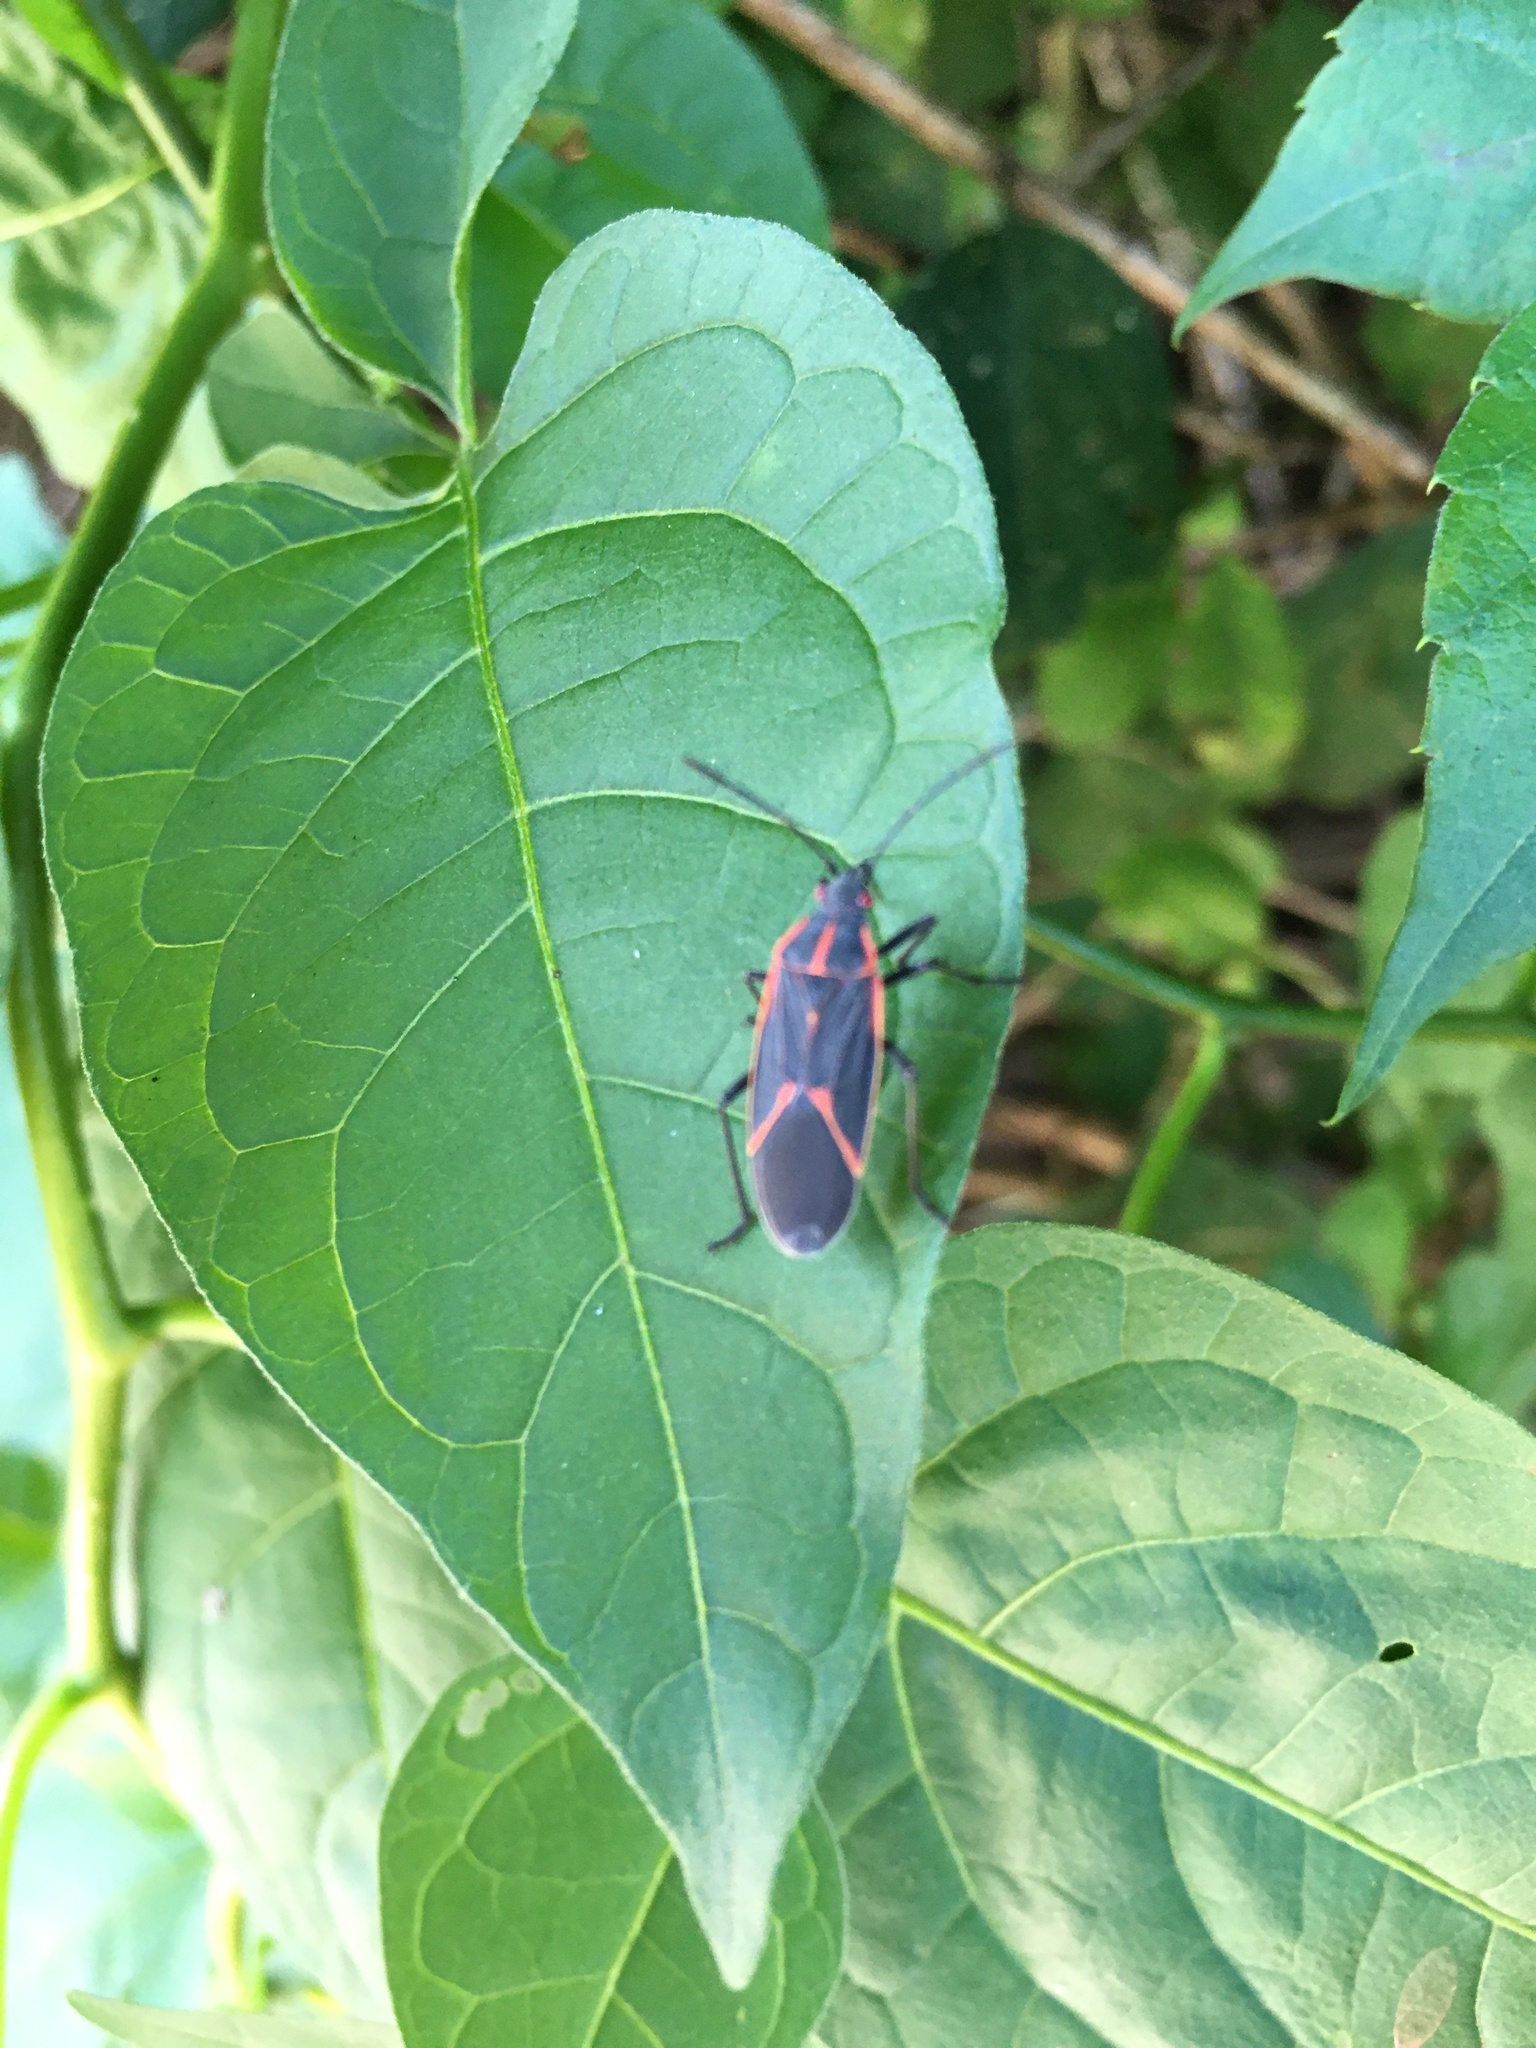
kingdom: Animalia
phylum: Arthropoda
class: Insecta
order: Hemiptera
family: Rhopalidae
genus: Boisea
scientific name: Boisea trivittata
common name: Boxelder bug
